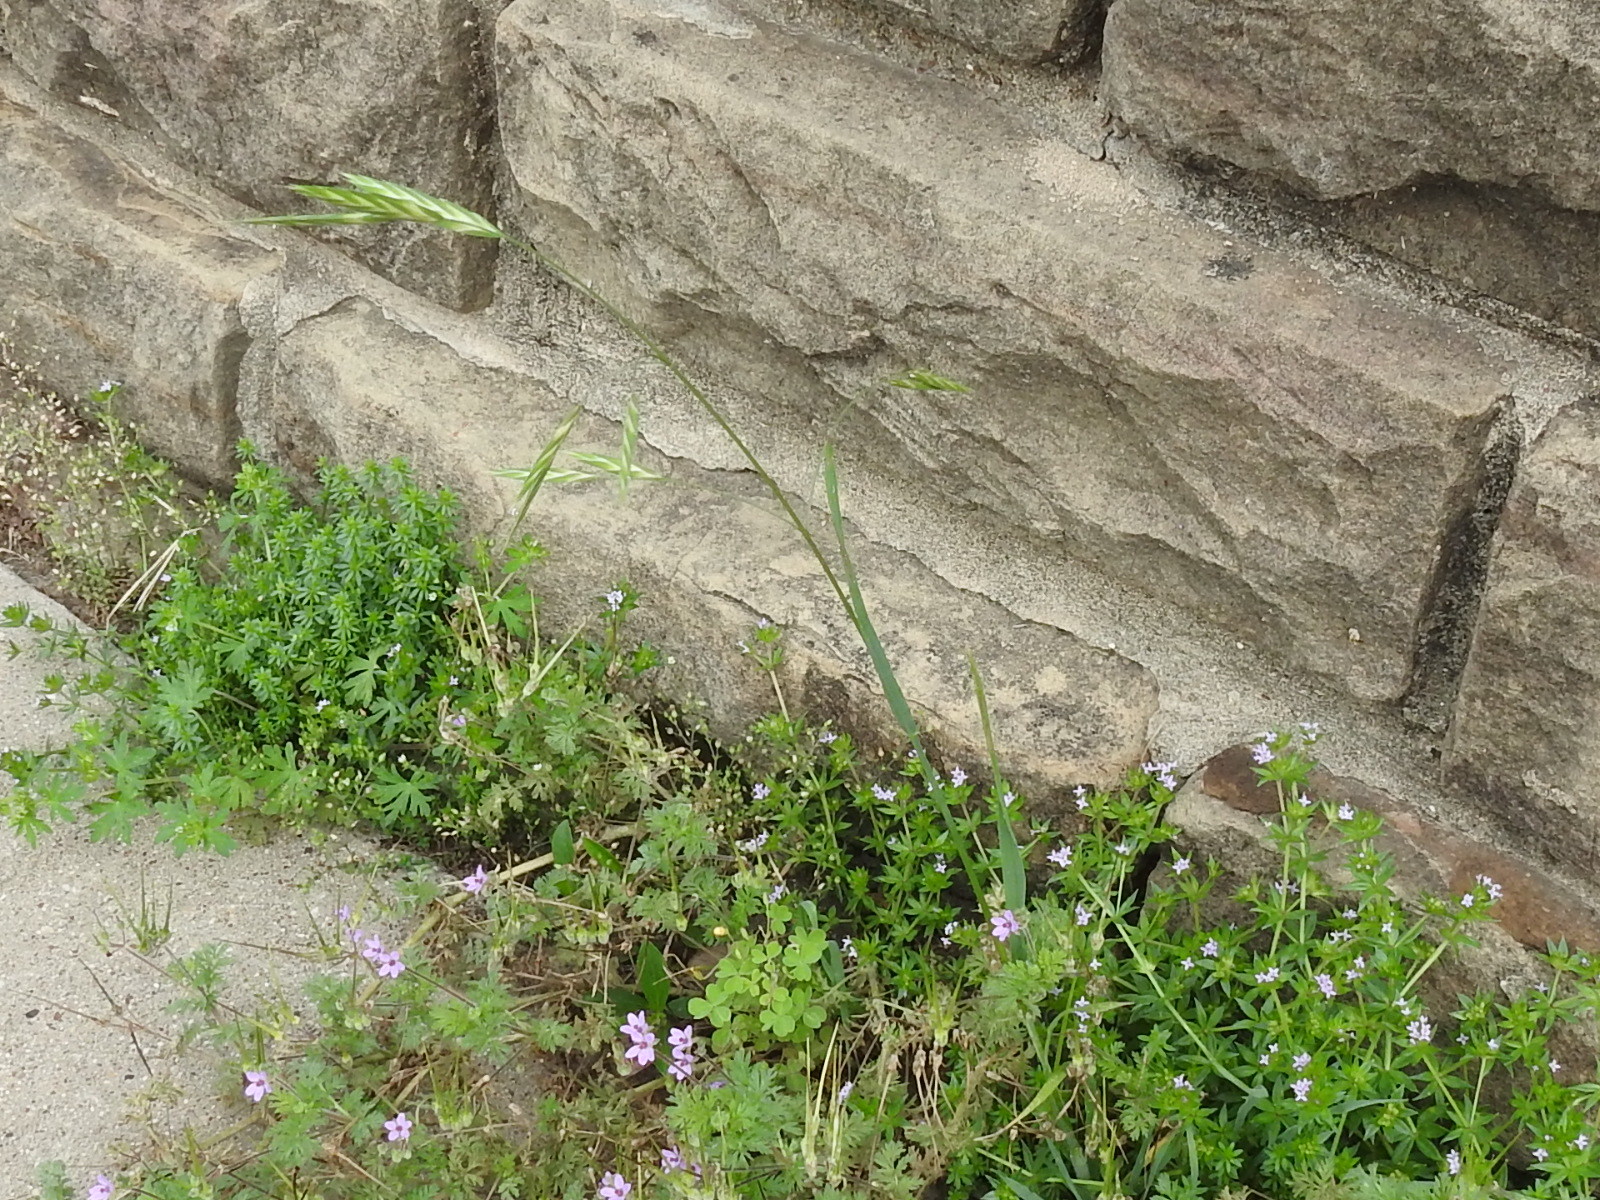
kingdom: Plantae
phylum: Tracheophyta
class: Liliopsida
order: Poales
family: Poaceae
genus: Bromus
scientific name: Bromus catharticus
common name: Rescuegrass
